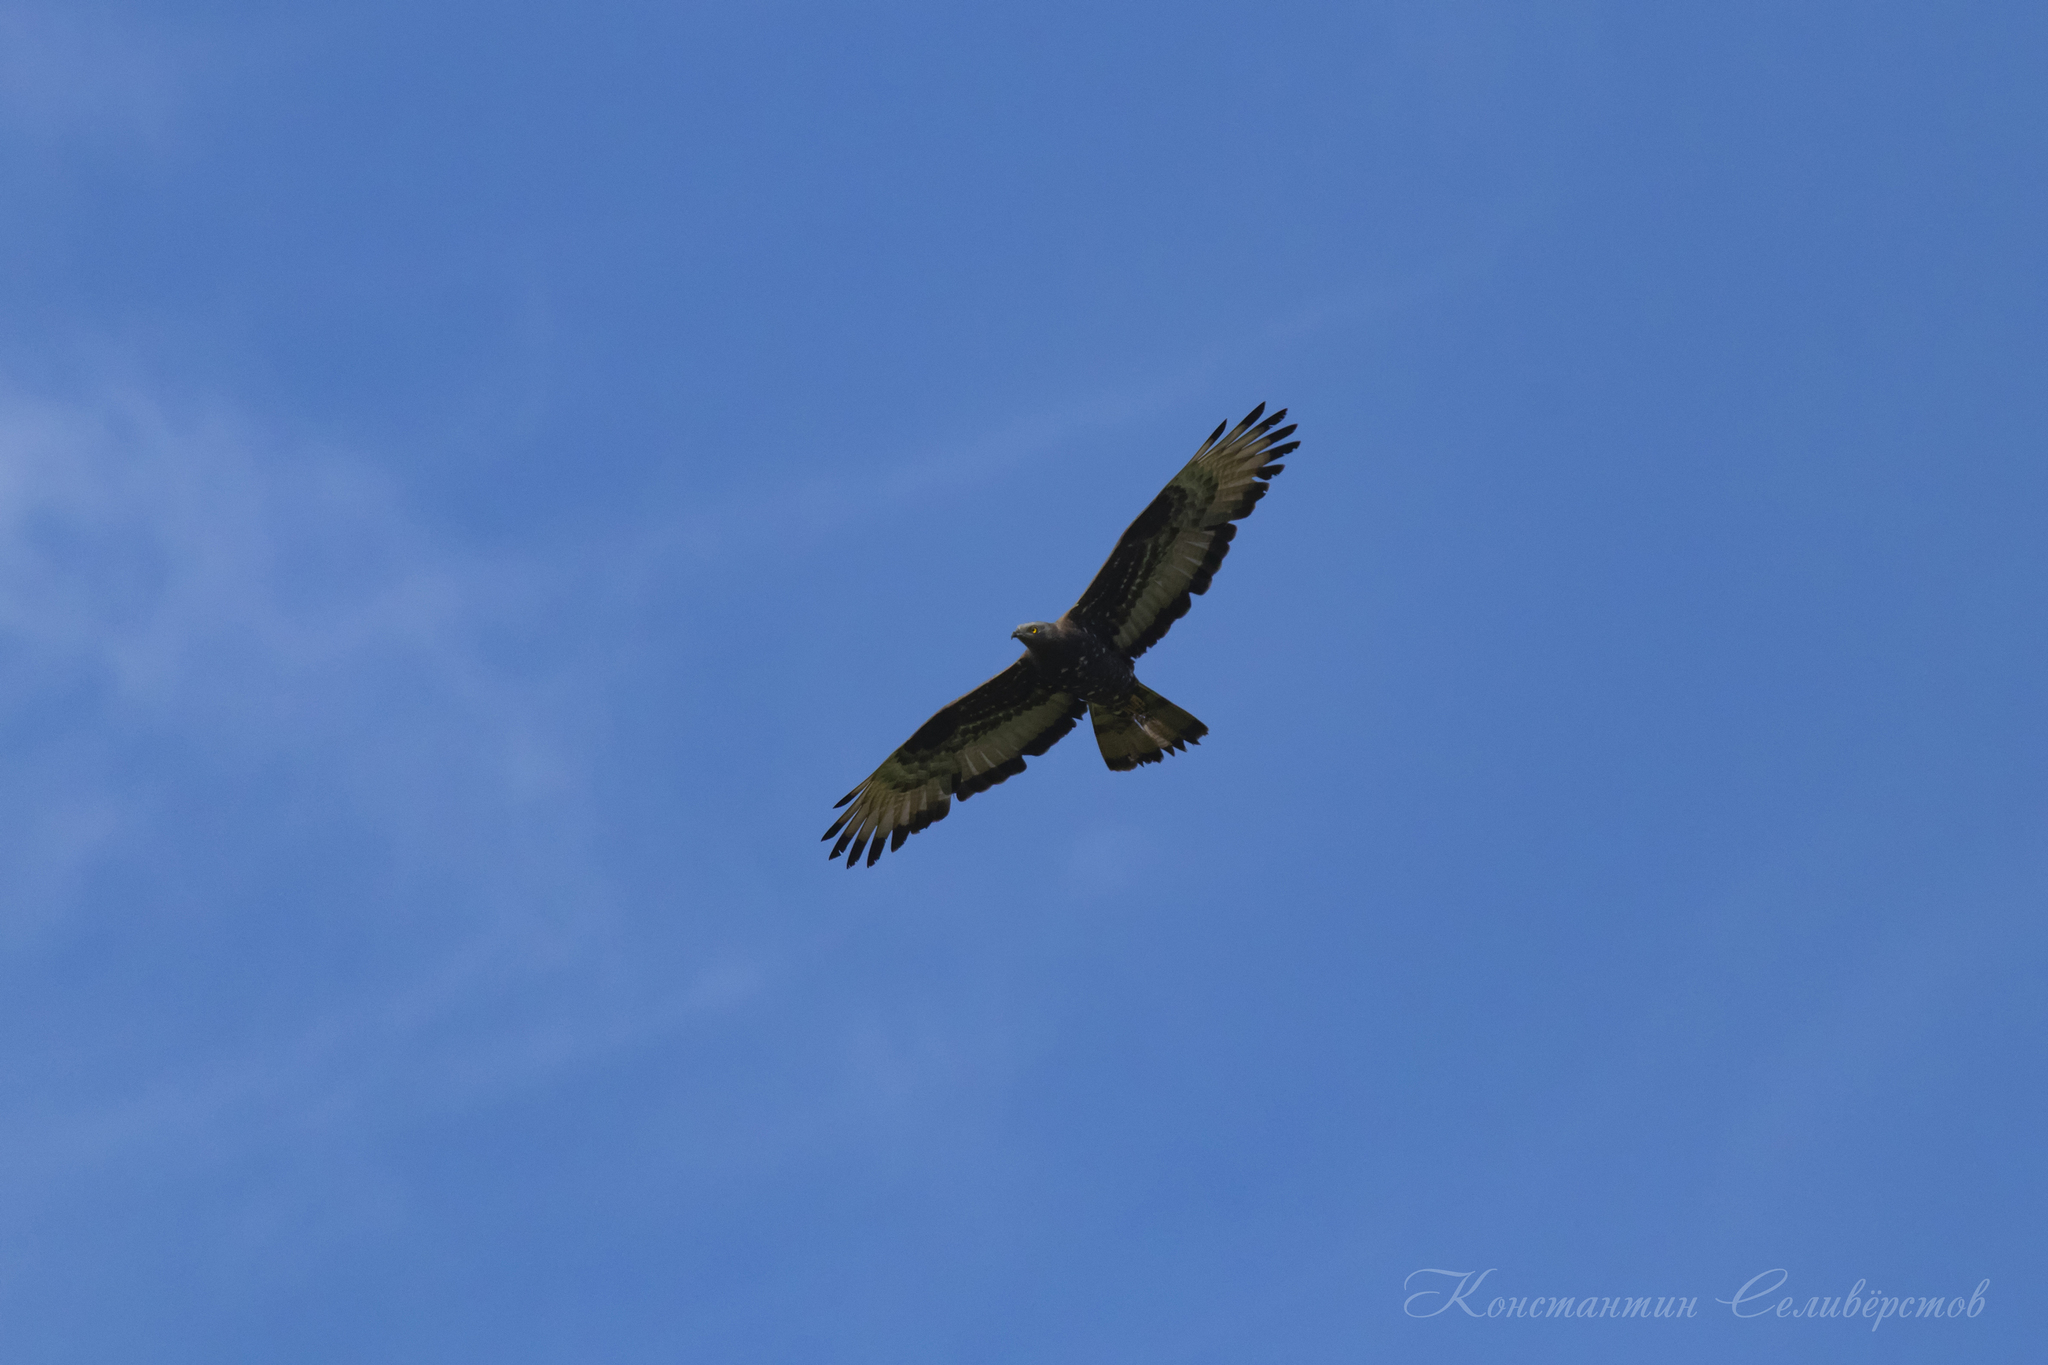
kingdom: Animalia
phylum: Chordata
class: Aves
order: Accipitriformes
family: Accipitridae
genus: Pernis
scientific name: Pernis apivorus
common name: European honey buzzard
